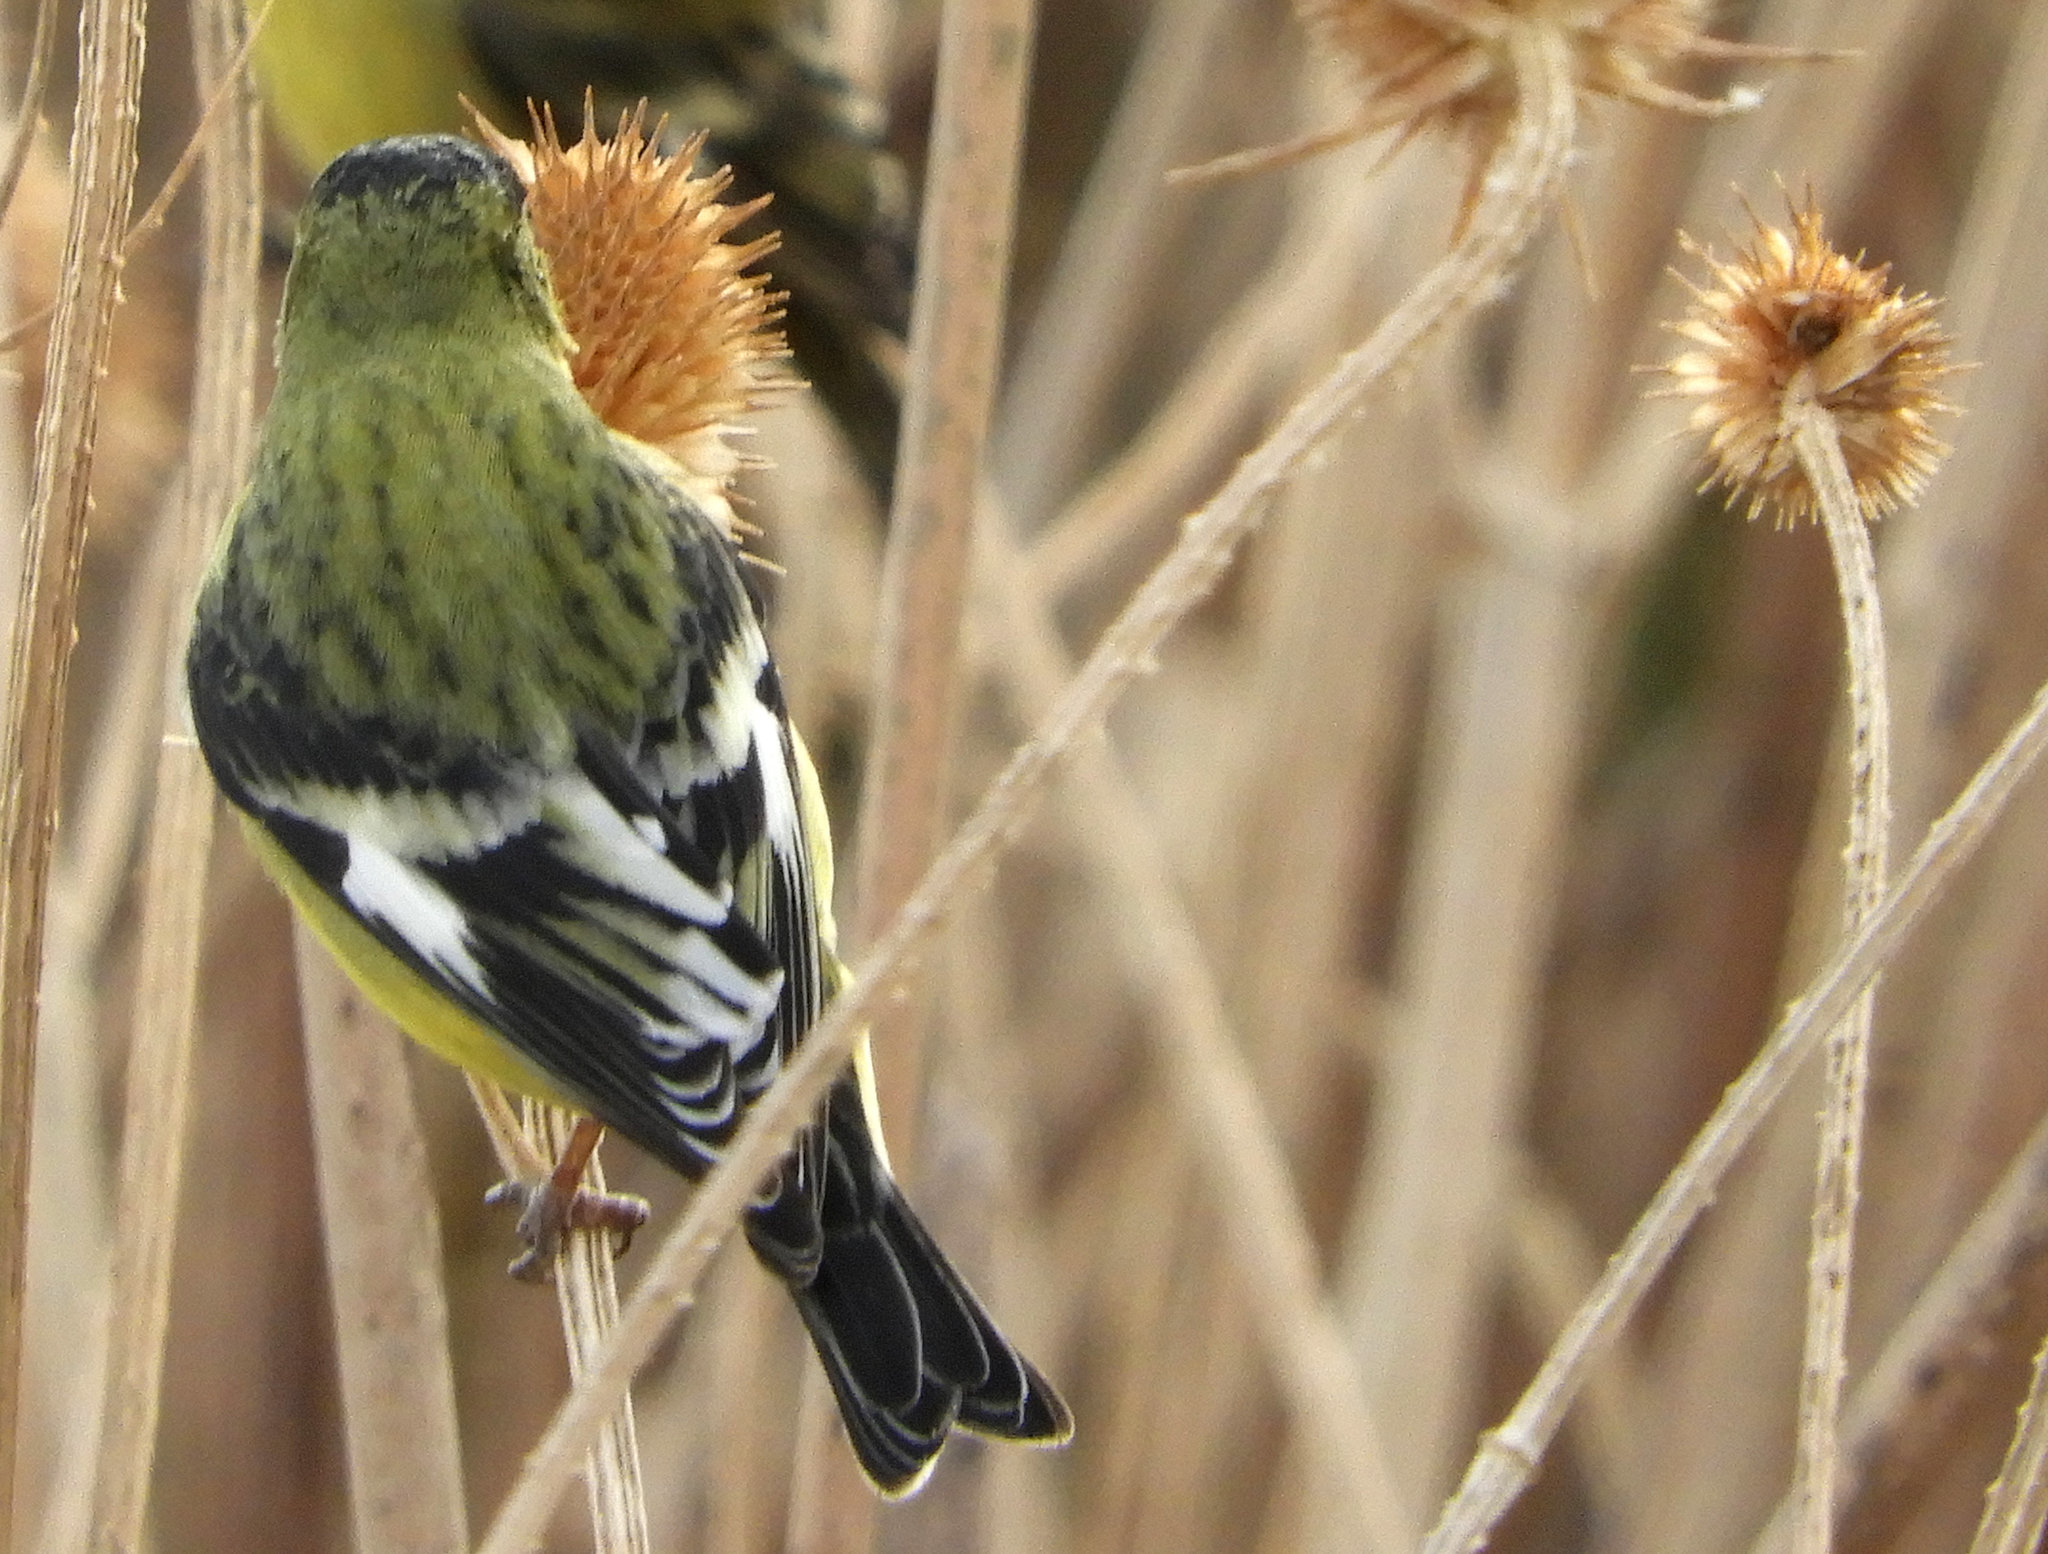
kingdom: Animalia
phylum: Chordata
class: Aves
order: Passeriformes
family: Fringillidae
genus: Spinus
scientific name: Spinus psaltria
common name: Lesser goldfinch
